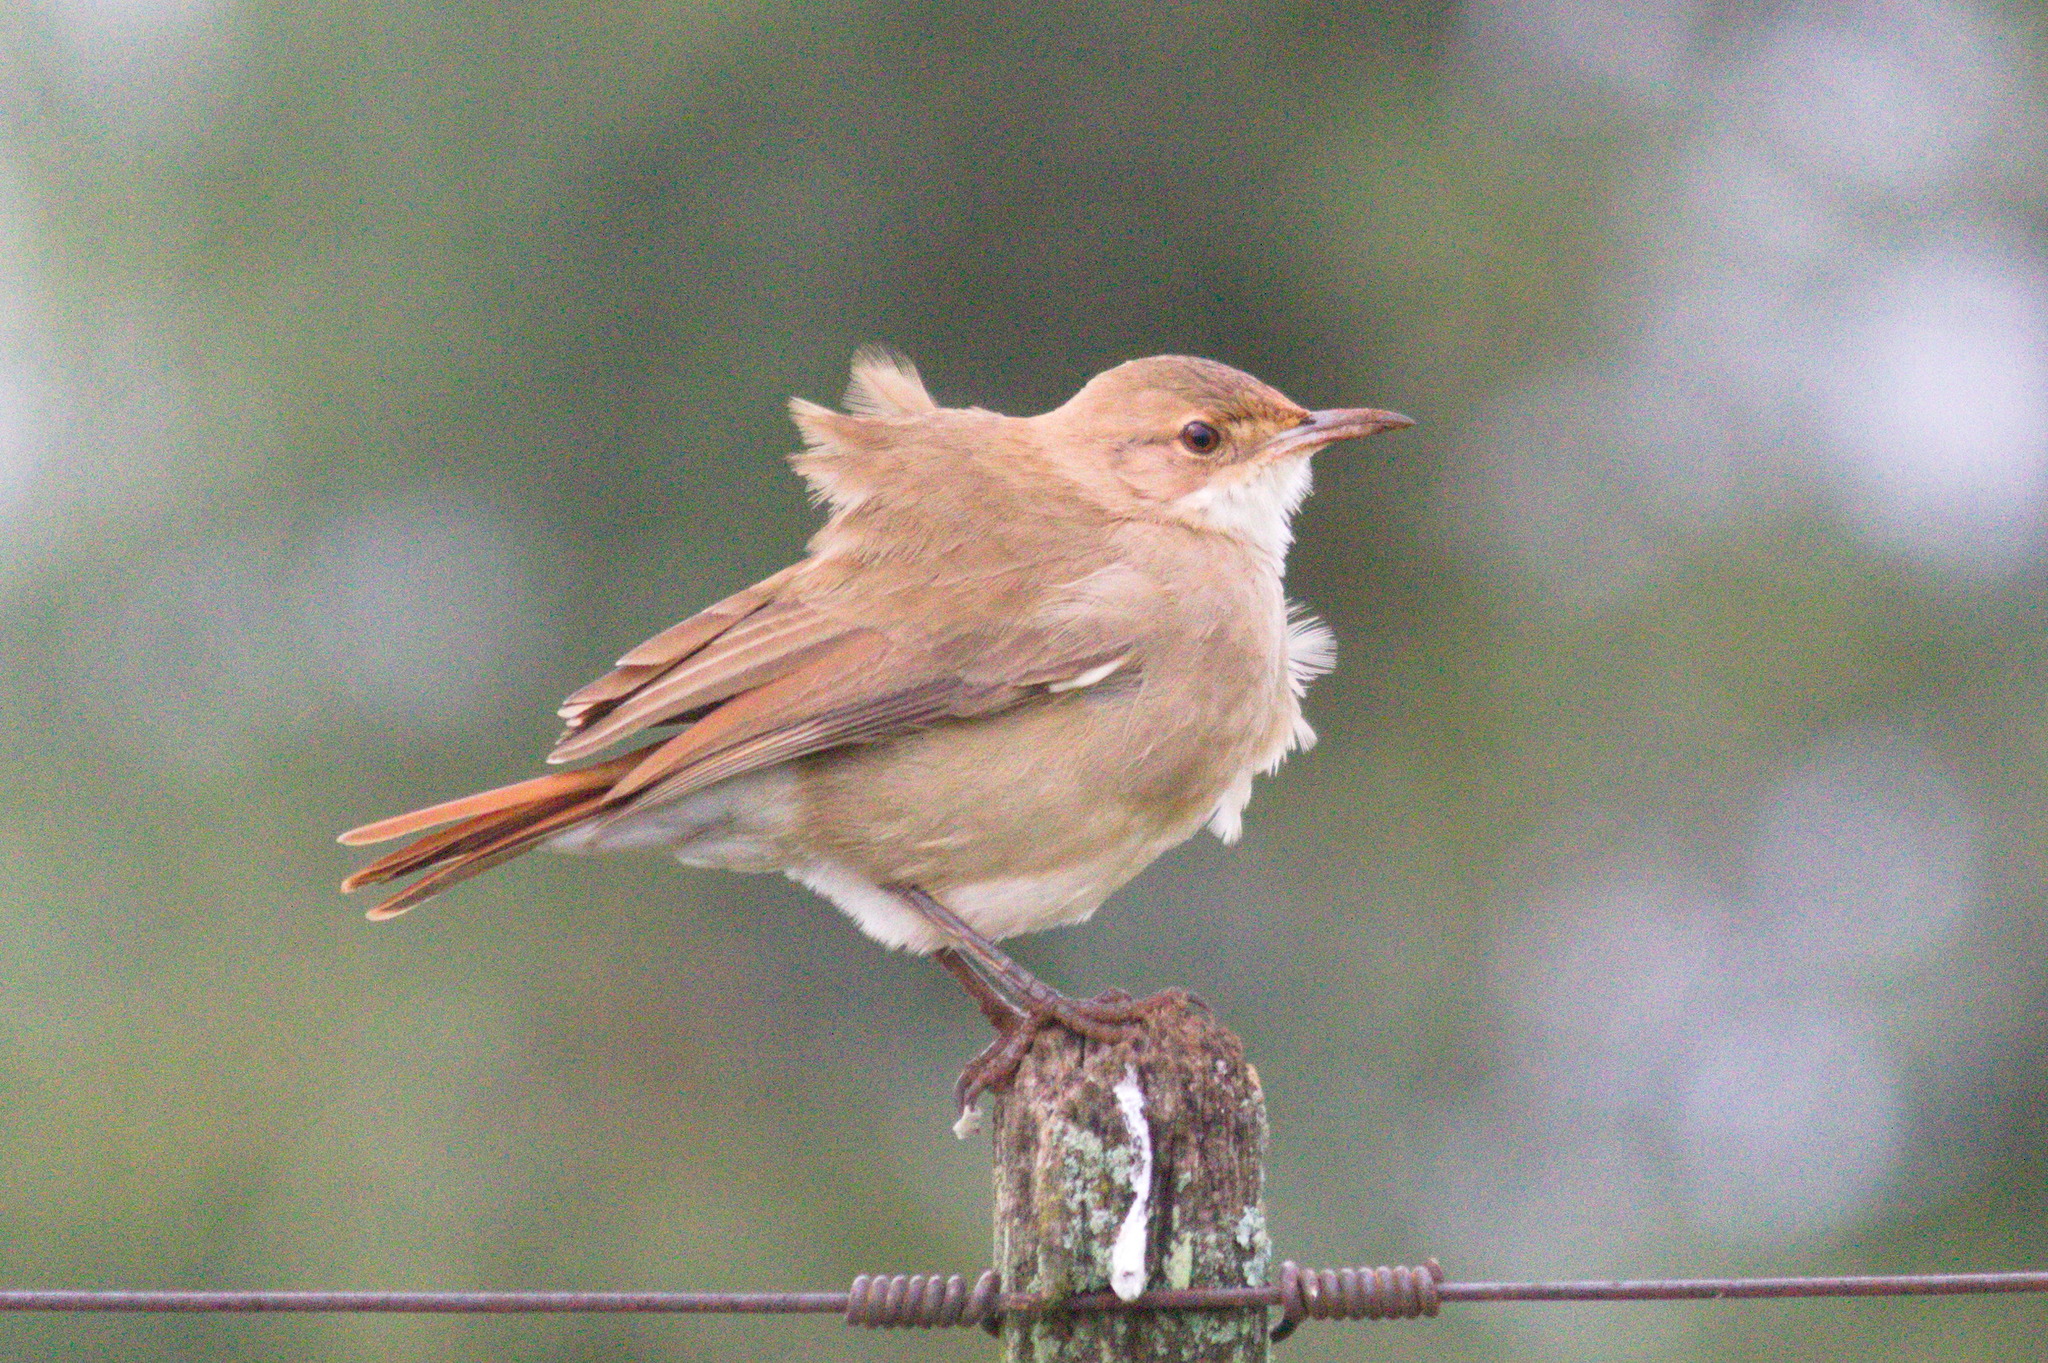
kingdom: Animalia
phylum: Chordata
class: Aves
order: Passeriformes
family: Furnariidae
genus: Furnarius
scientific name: Furnarius rufus
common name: Rufous hornero
